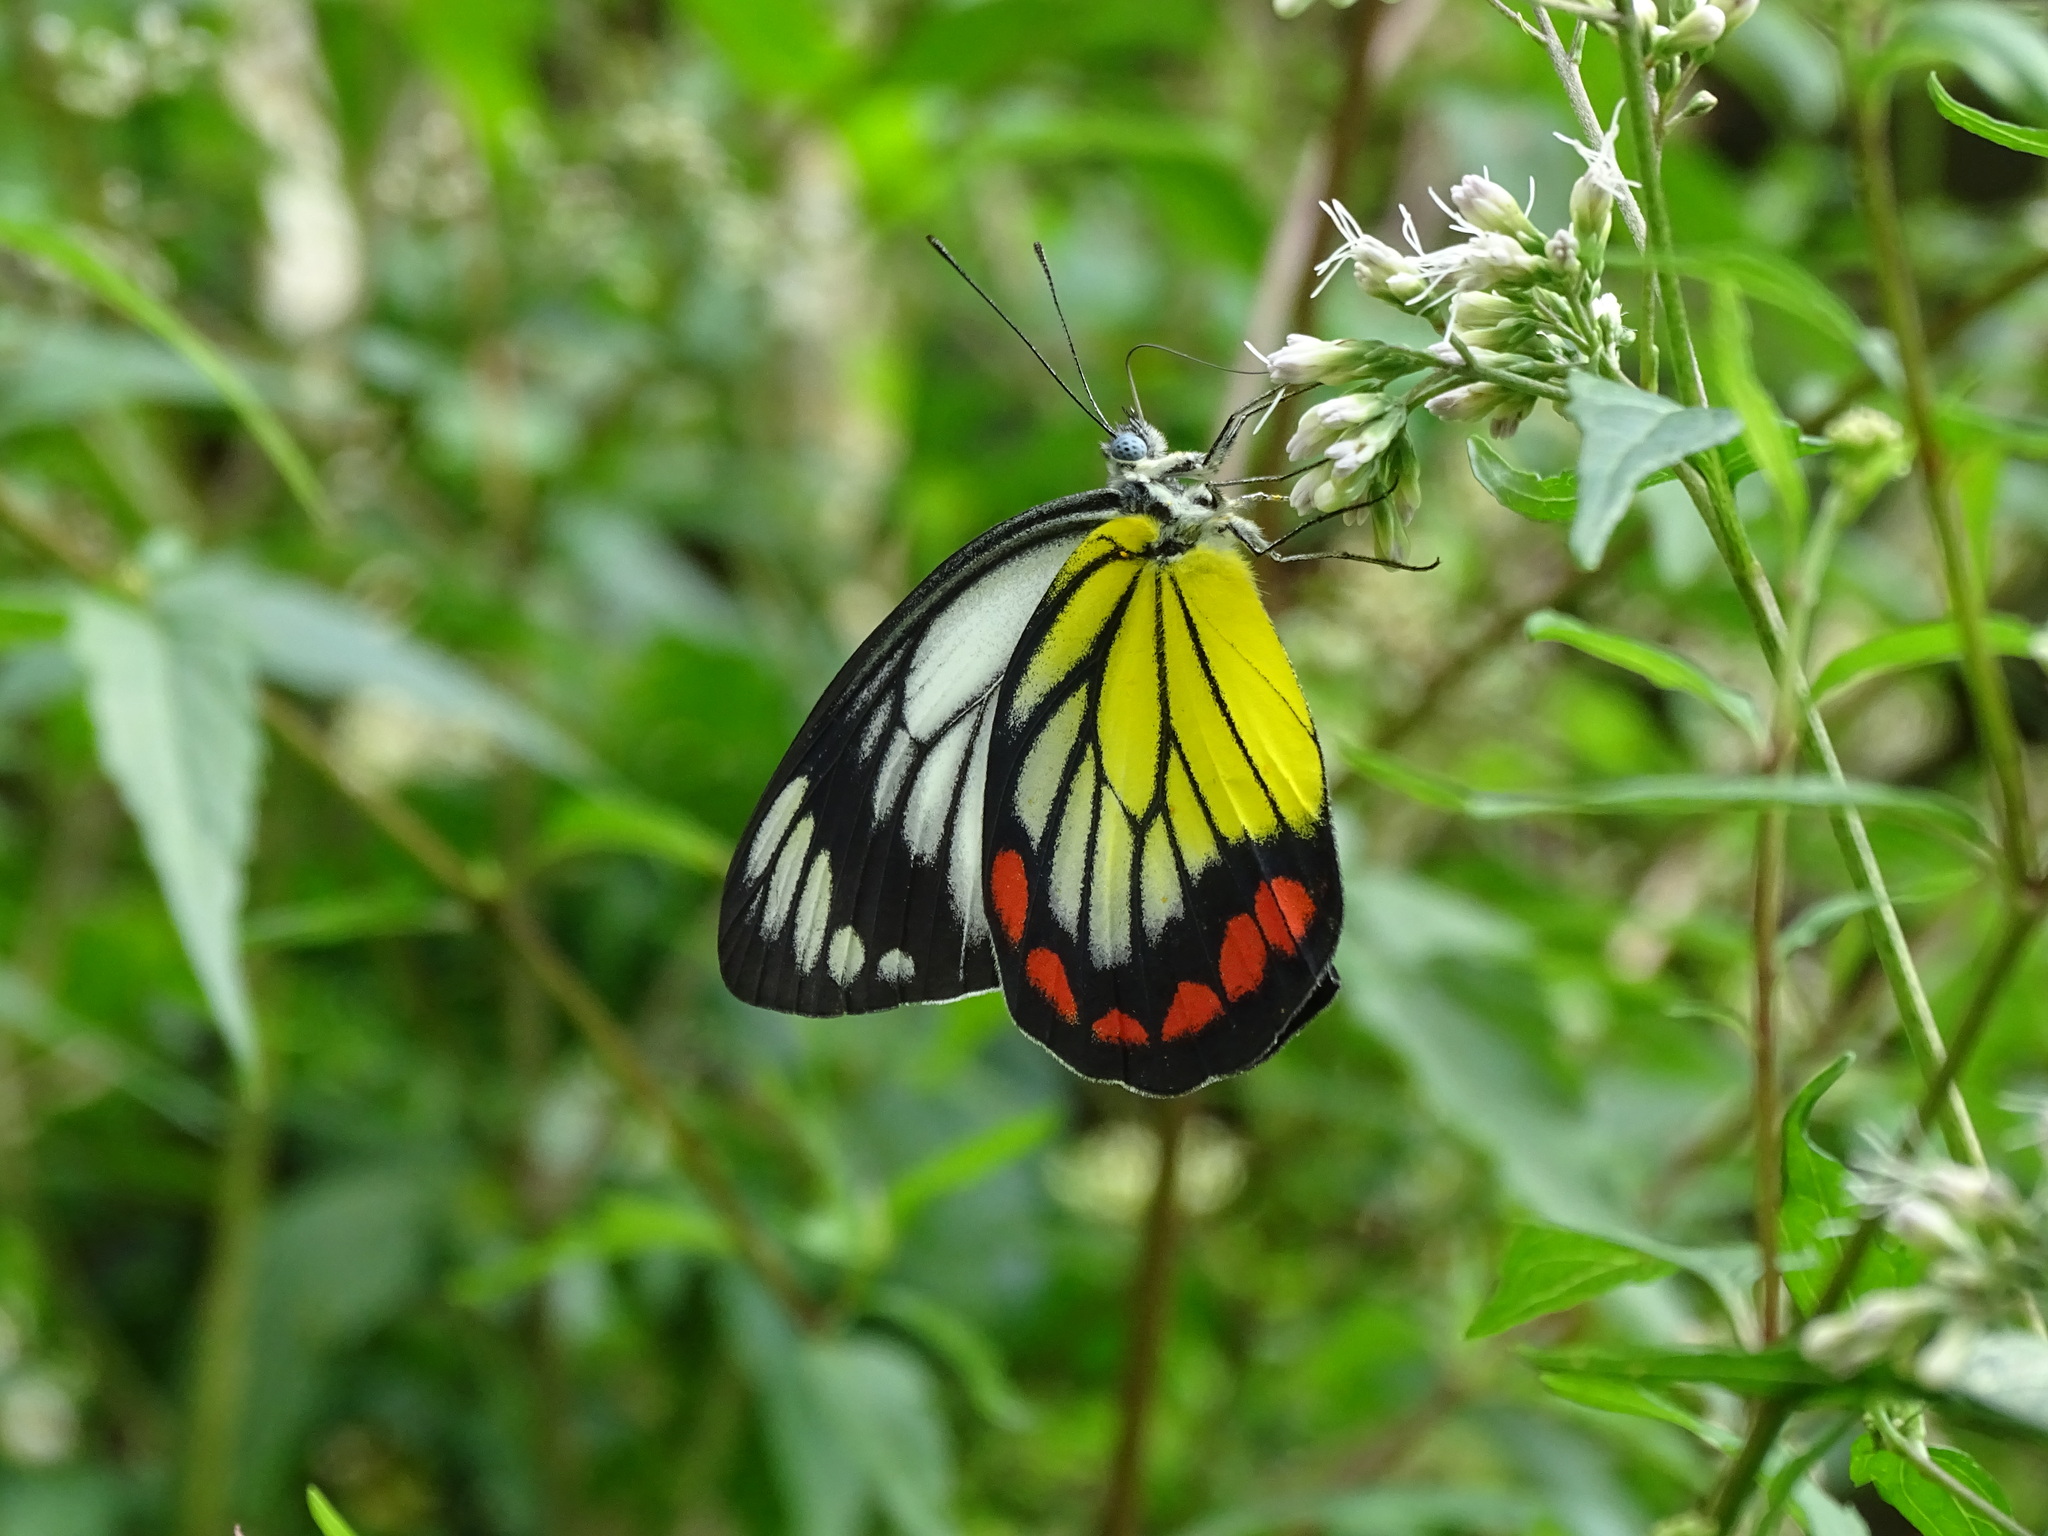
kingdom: Animalia
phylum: Arthropoda
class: Insecta
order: Lepidoptera
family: Pieridae
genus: Delias
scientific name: Delias hyparete
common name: Painted jezebel
